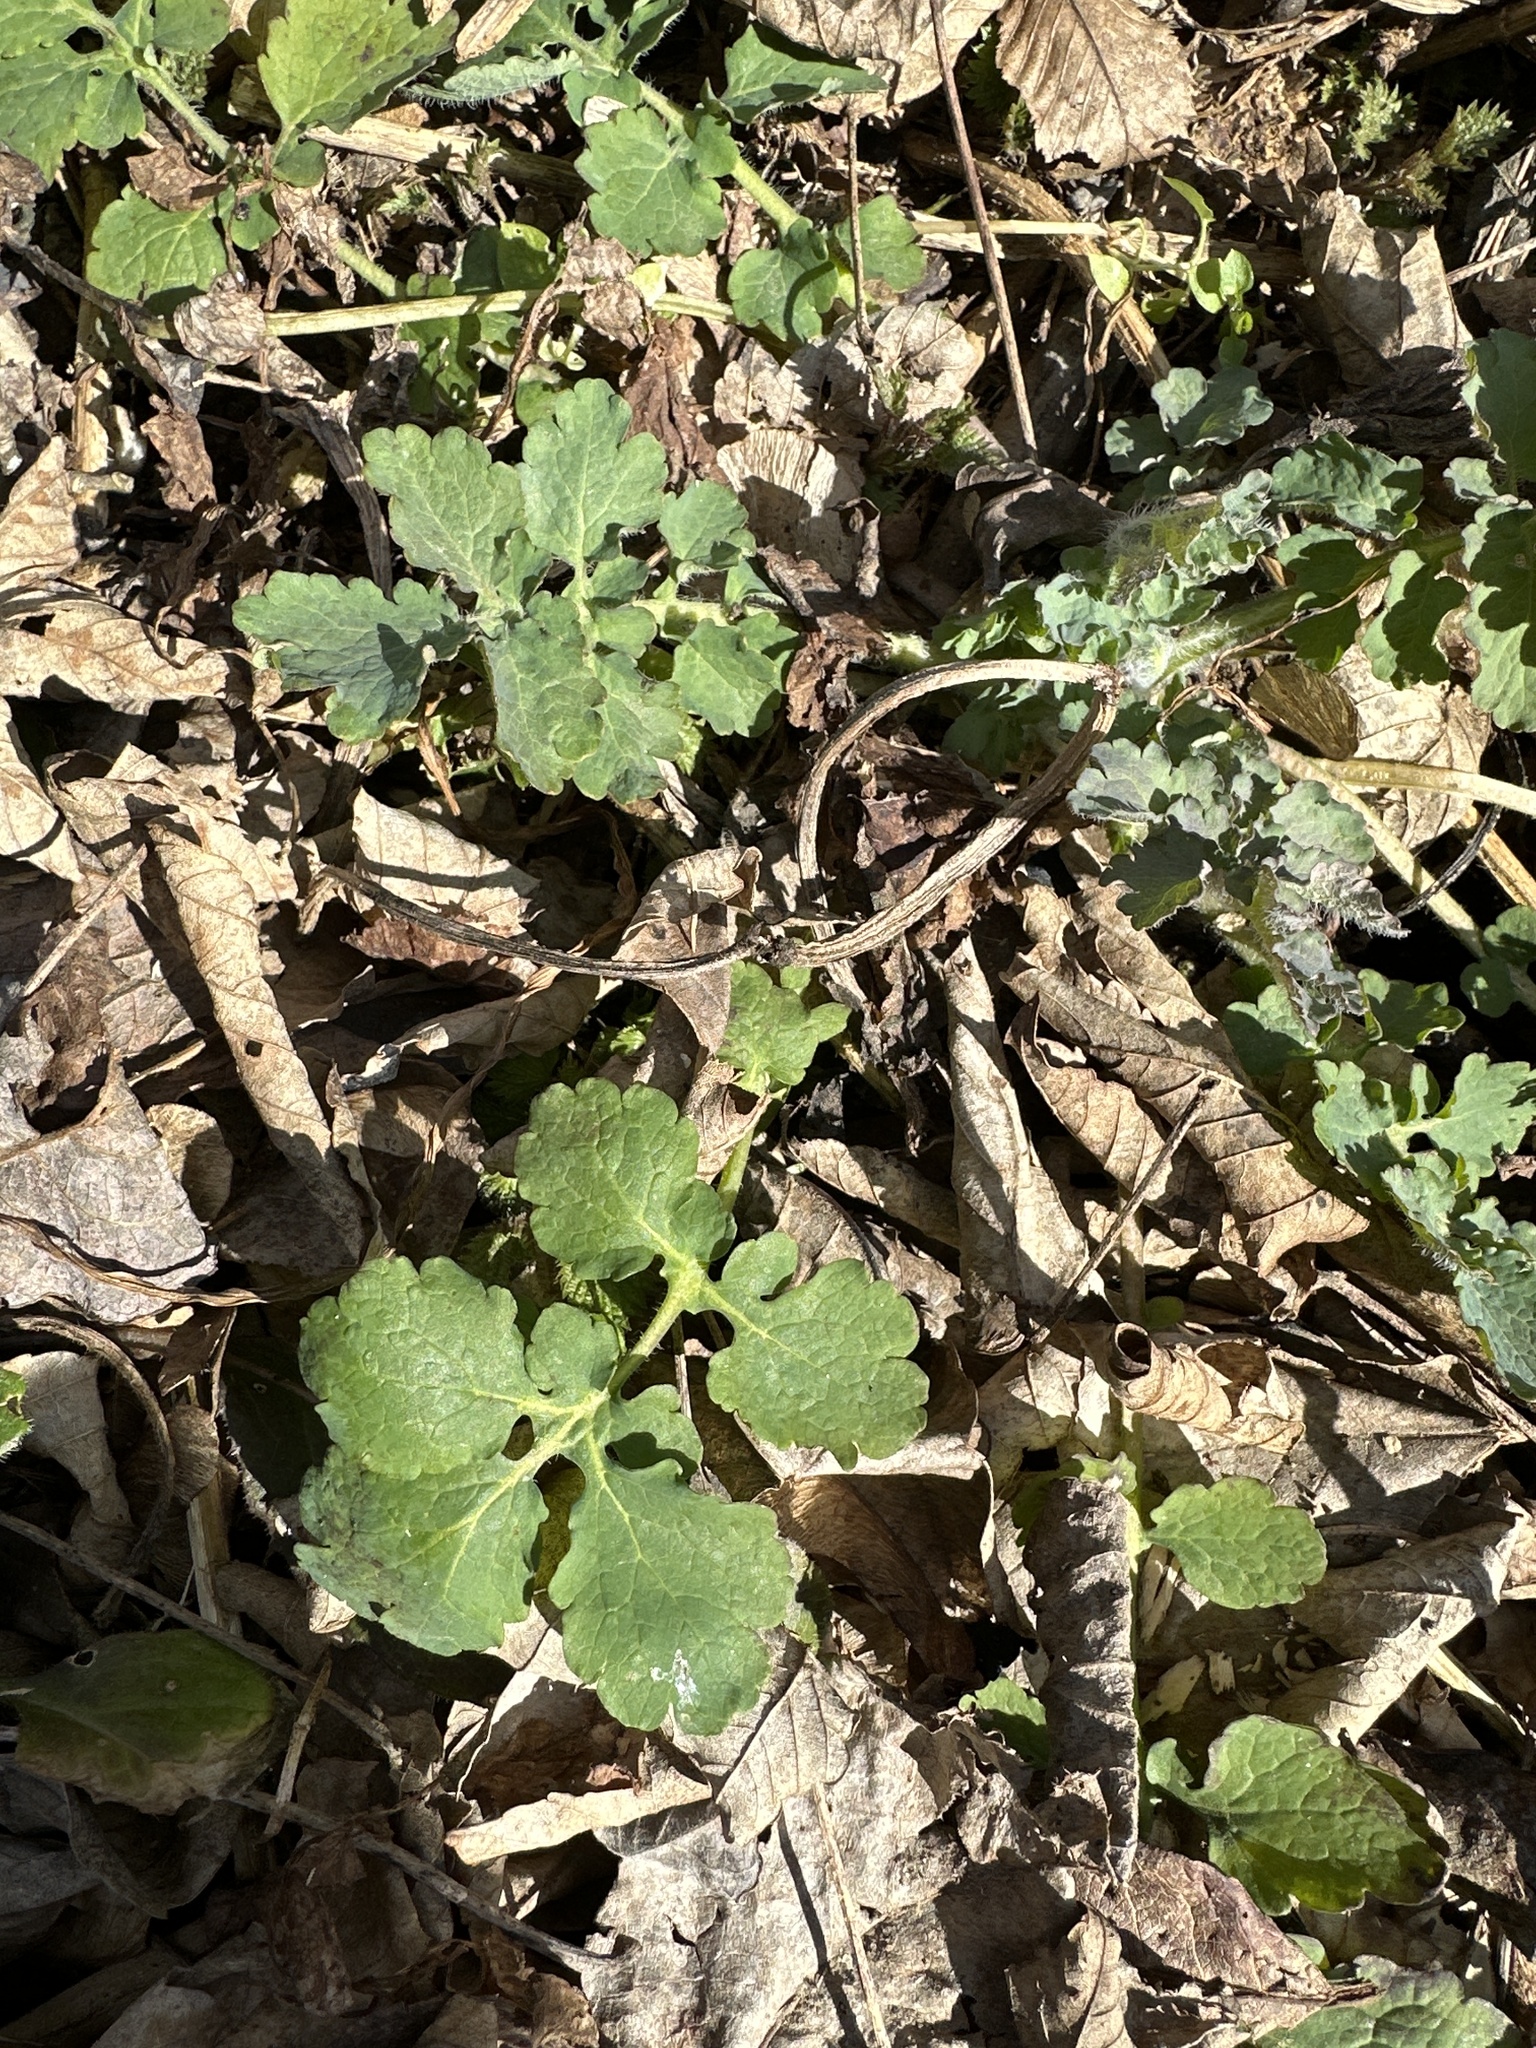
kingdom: Plantae
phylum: Tracheophyta
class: Magnoliopsida
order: Ranunculales
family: Papaveraceae
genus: Chelidonium
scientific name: Chelidonium majus
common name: Greater celandine
